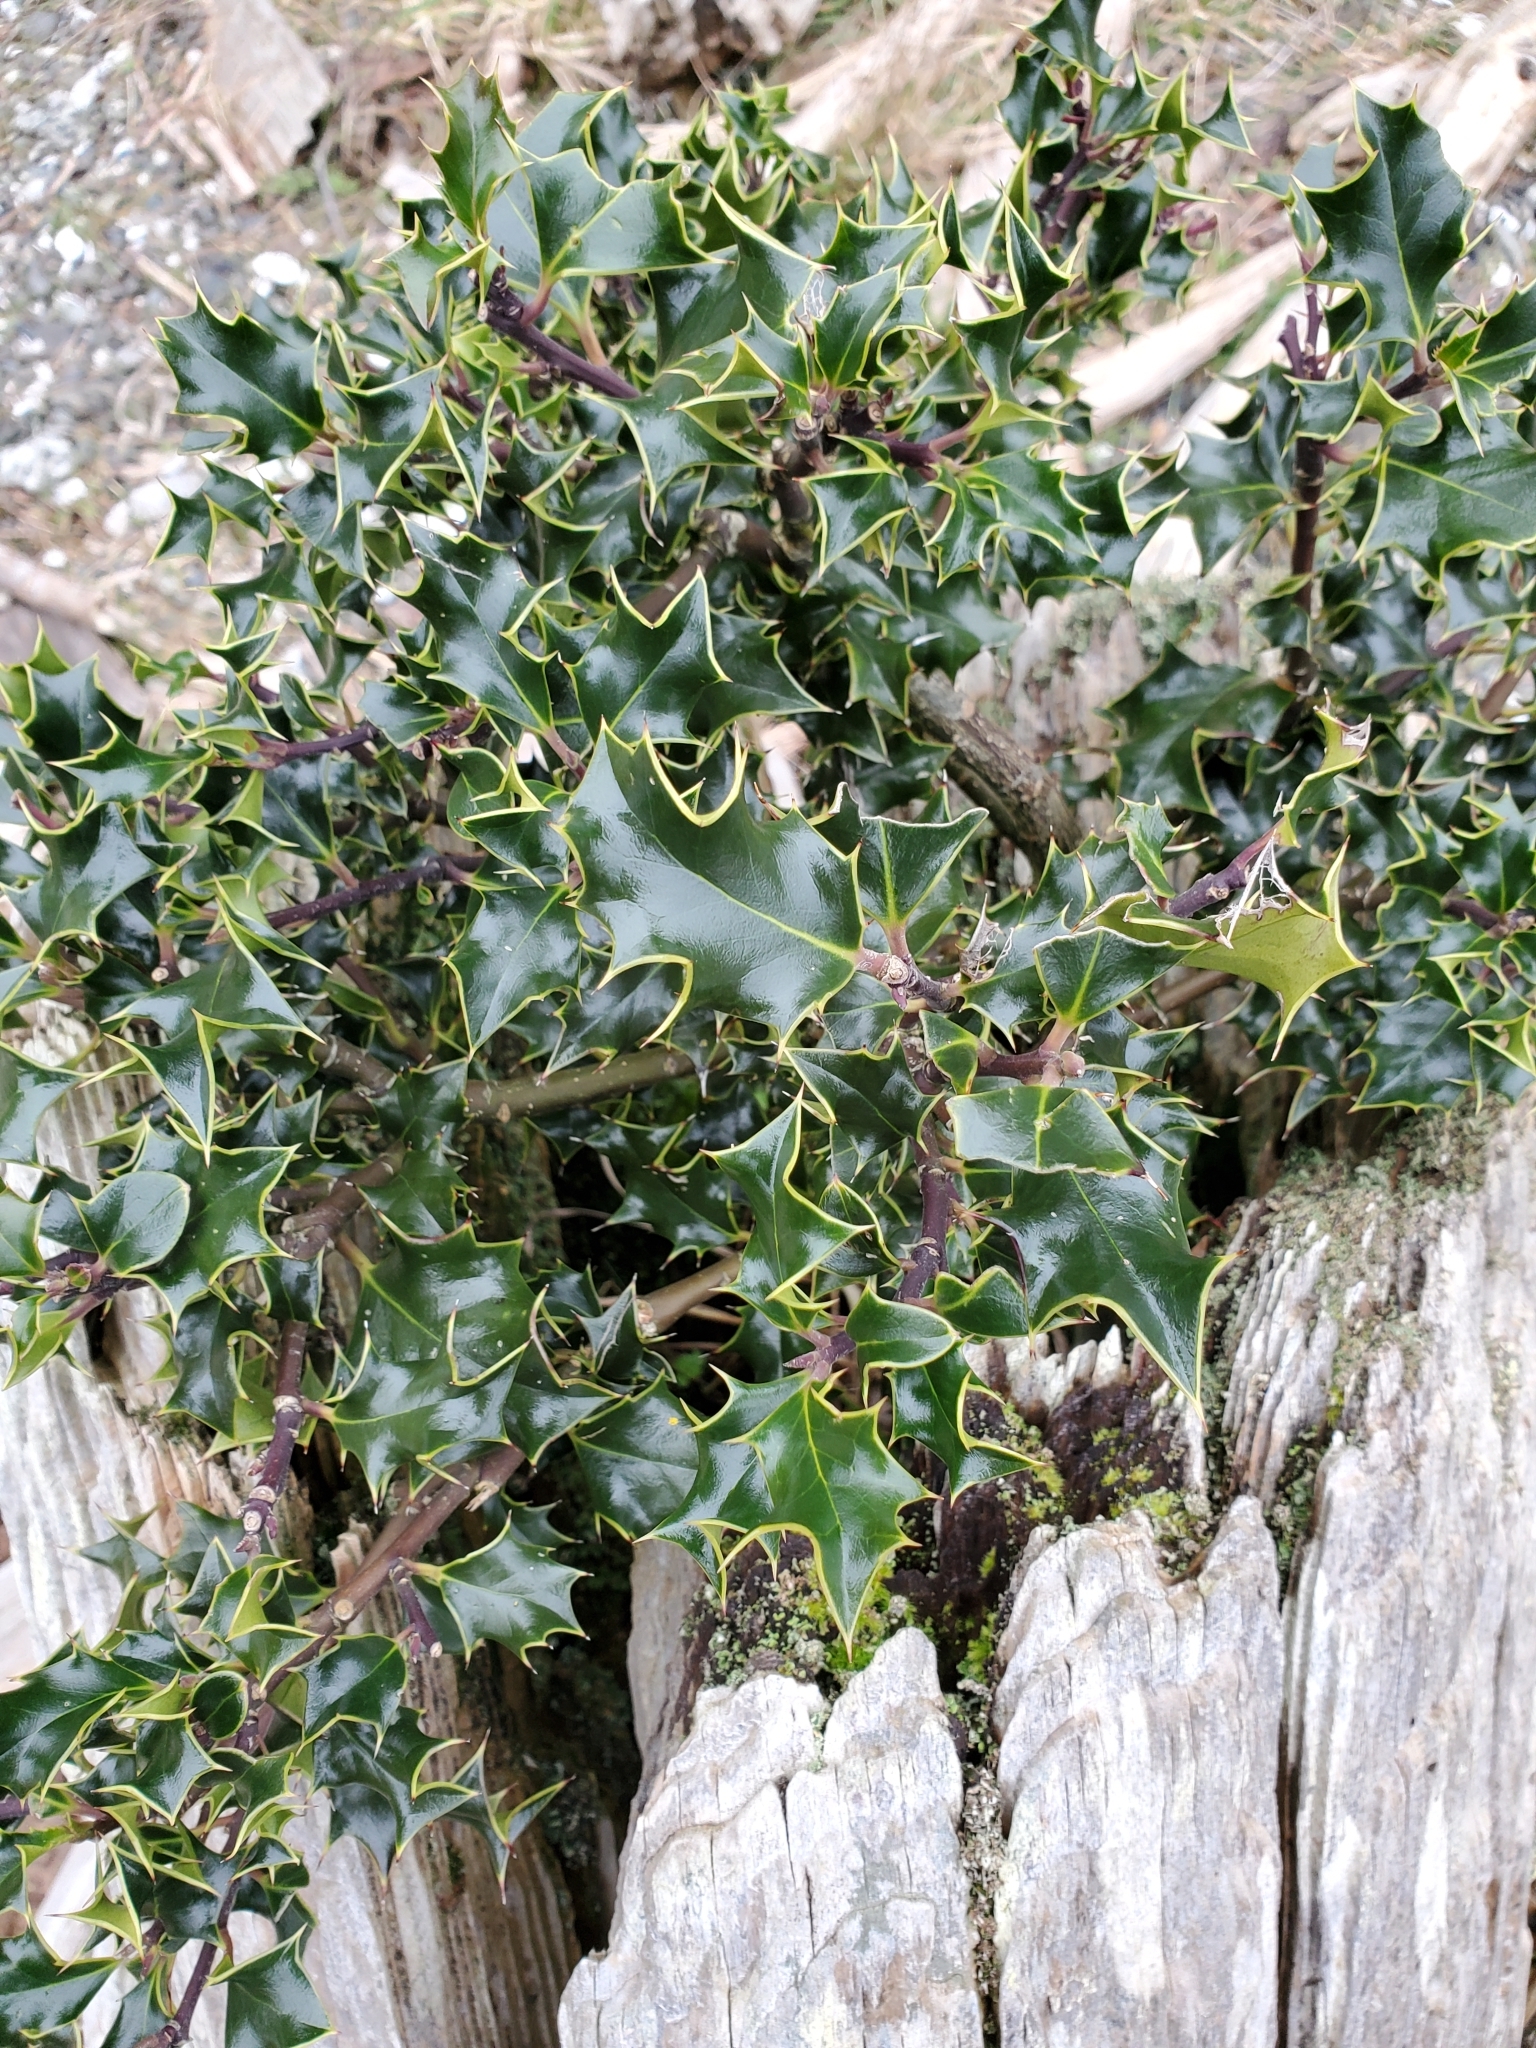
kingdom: Plantae
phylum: Tracheophyta
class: Magnoliopsida
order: Aquifoliales
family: Aquifoliaceae
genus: Ilex
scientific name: Ilex aquifolium
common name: English holly
